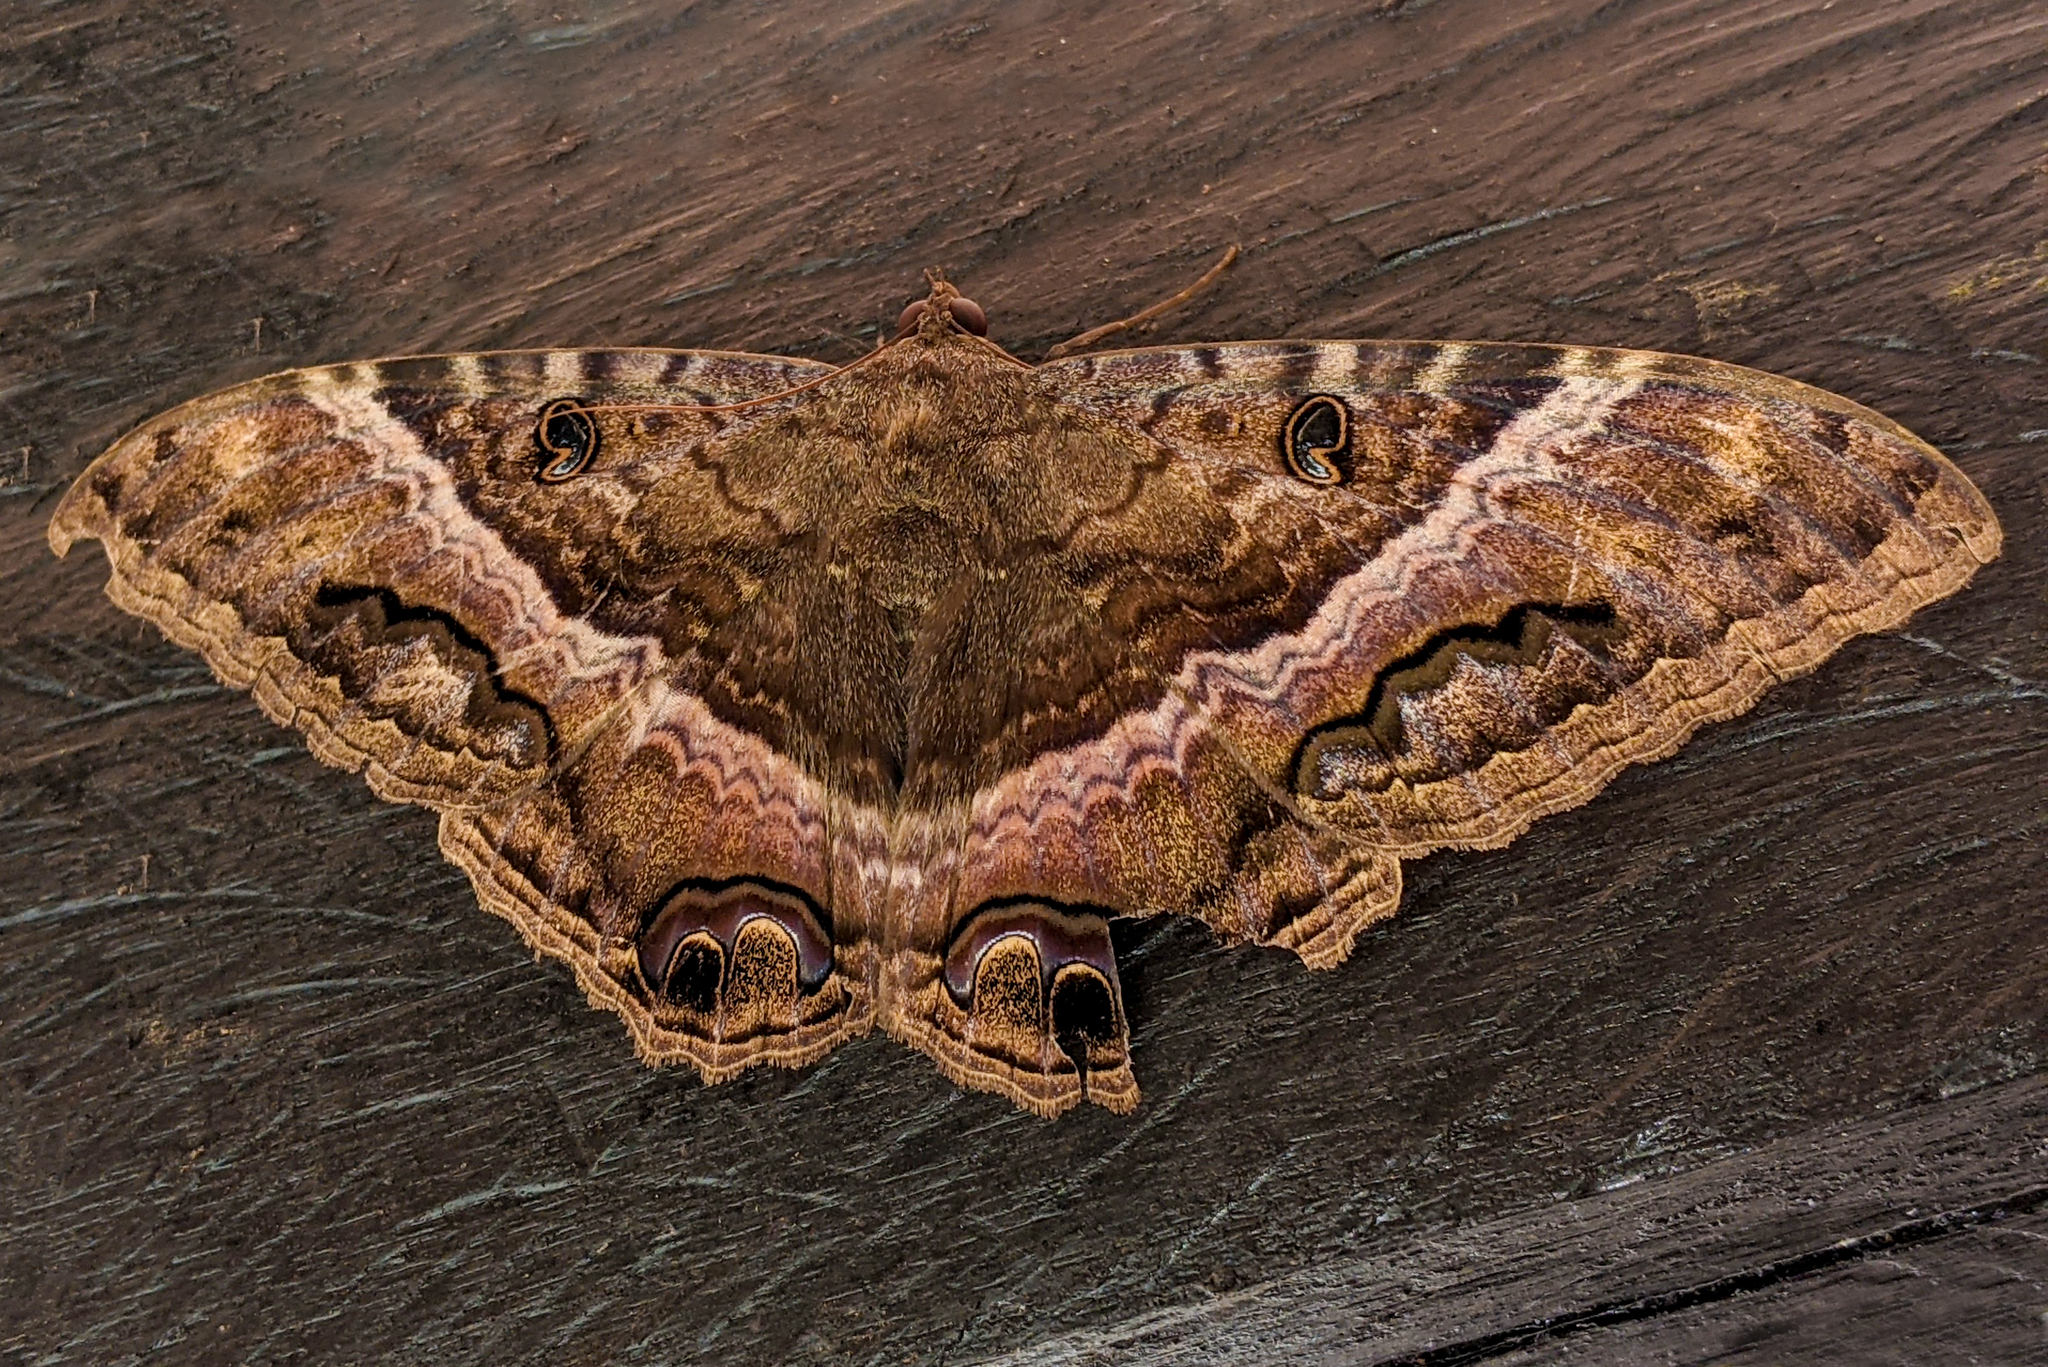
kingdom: Animalia
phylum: Arthropoda
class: Insecta
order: Lepidoptera
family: Erebidae
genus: Ascalapha
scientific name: Ascalapha odorata
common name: Black witch
